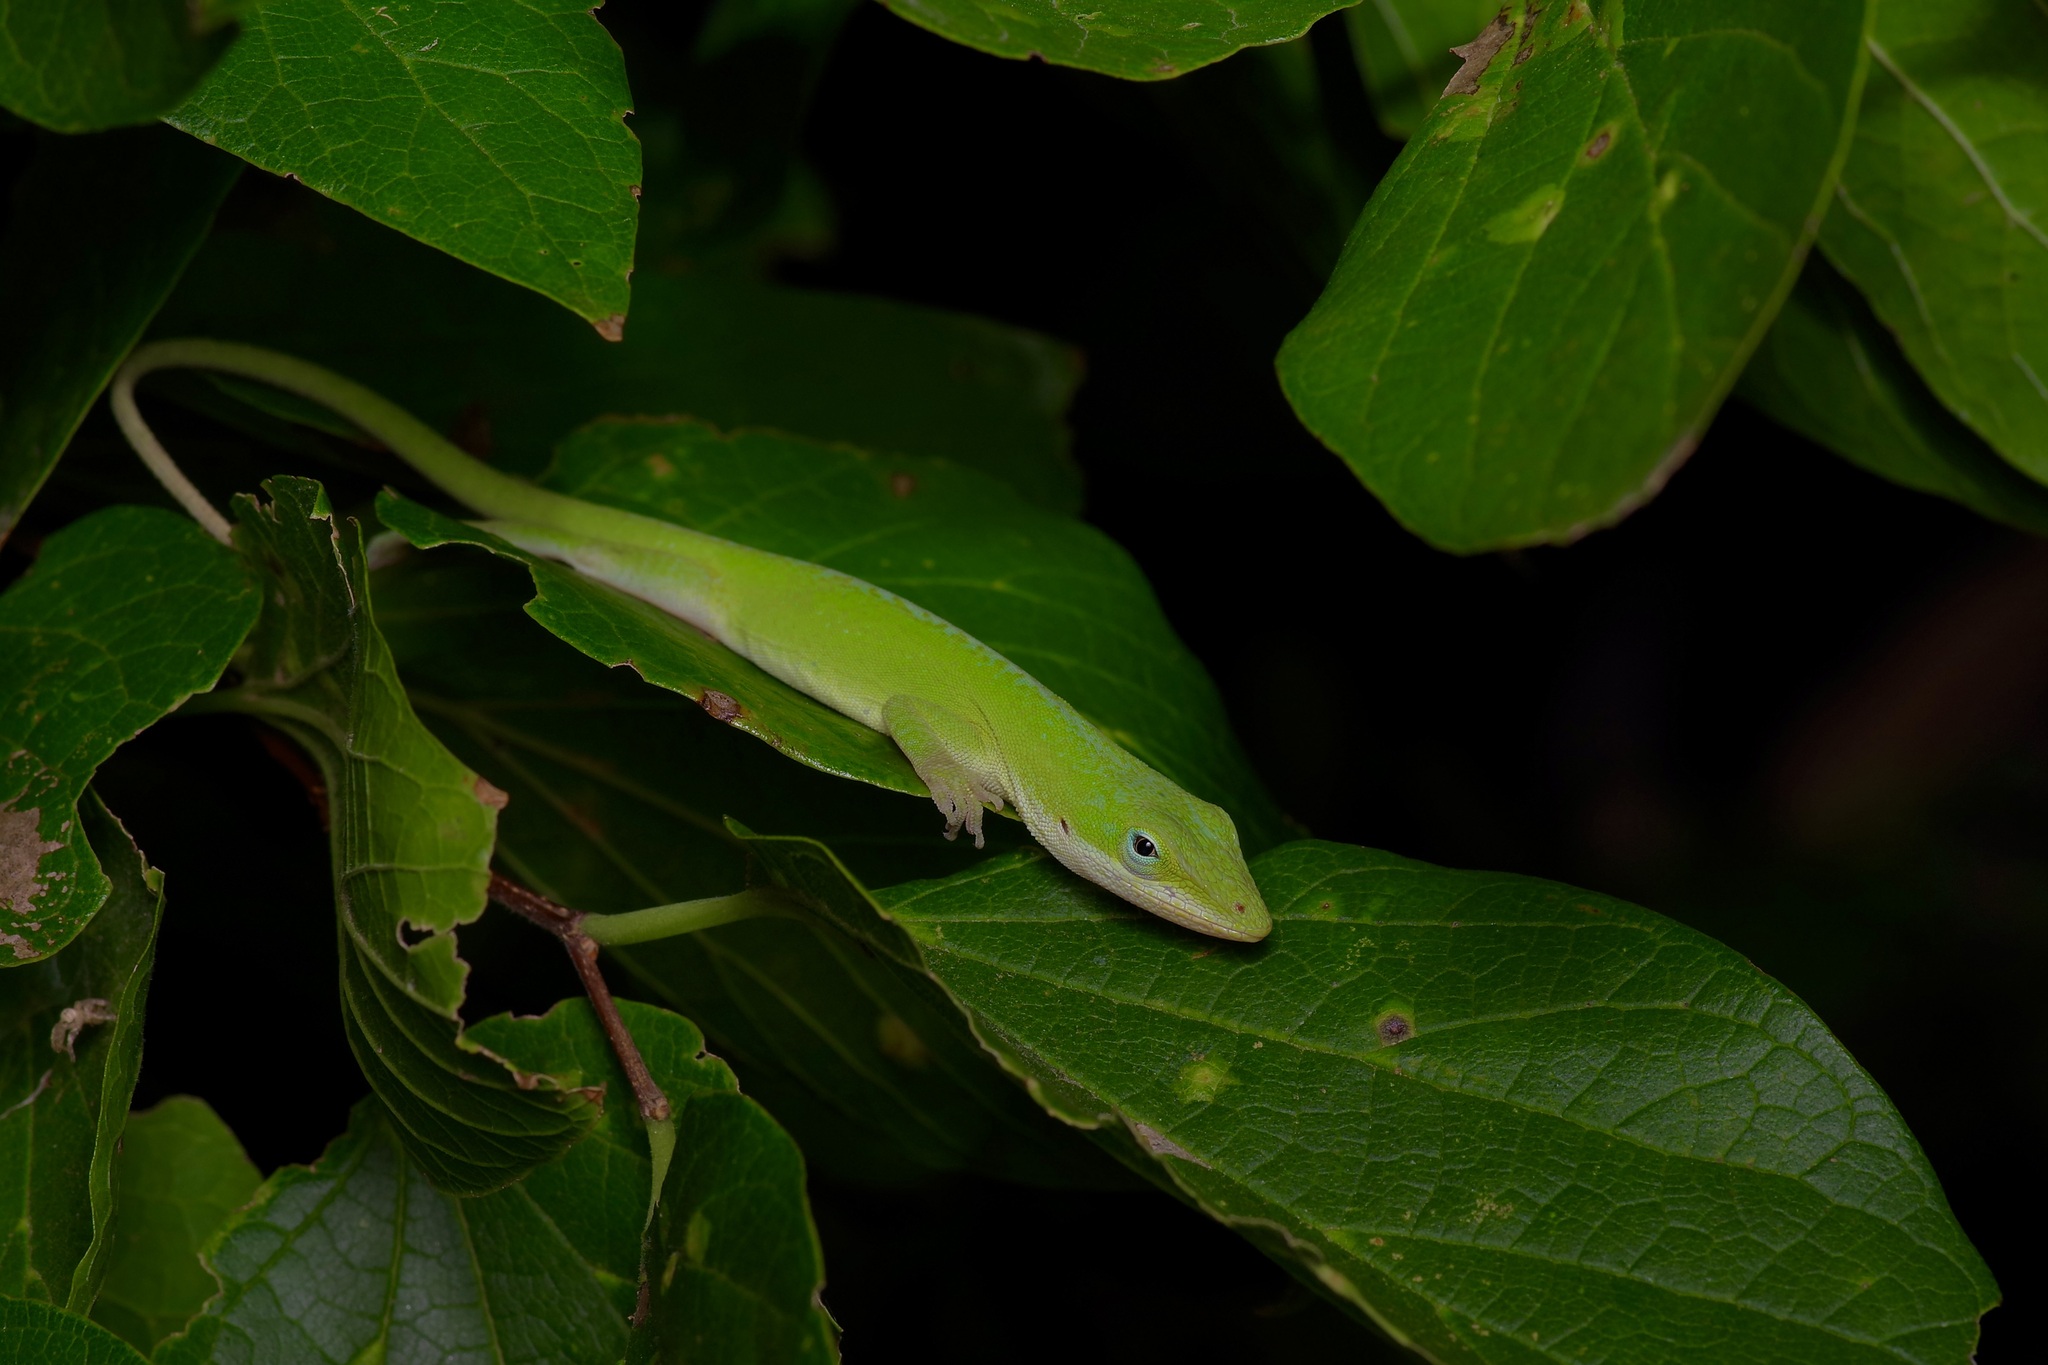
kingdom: Animalia
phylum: Chordata
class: Squamata
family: Dactyloidae
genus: Anolis
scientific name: Anolis carolinensis
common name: Green anole
